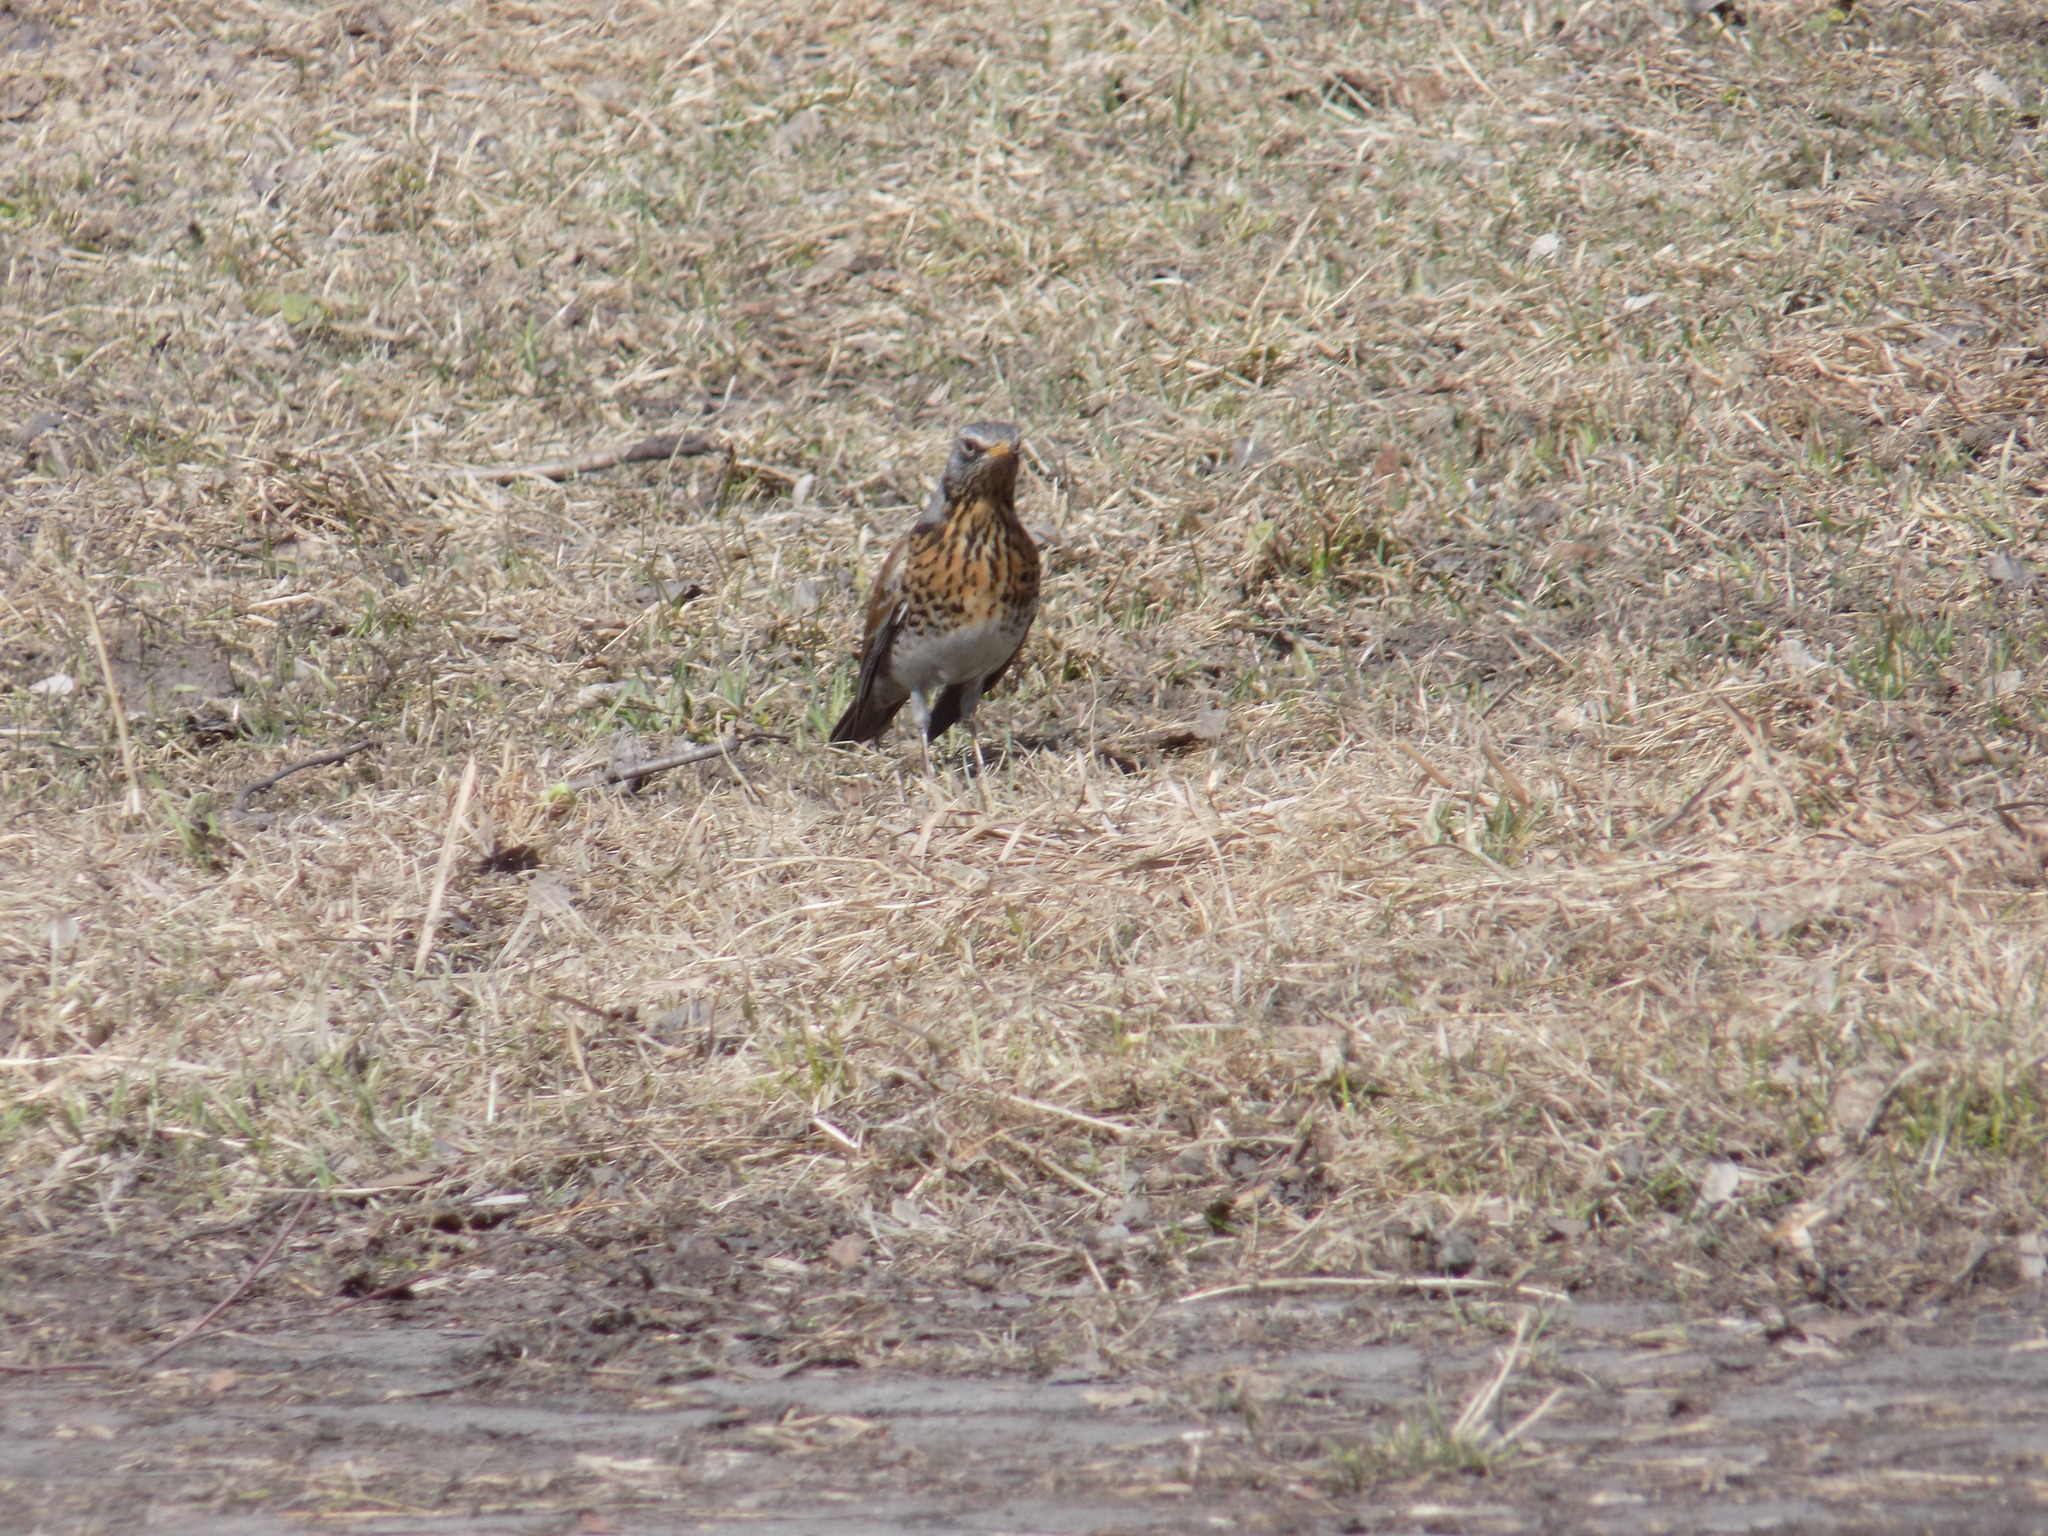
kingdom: Animalia
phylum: Chordata
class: Aves
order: Passeriformes
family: Turdidae
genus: Turdus
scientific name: Turdus pilaris
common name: Fieldfare
